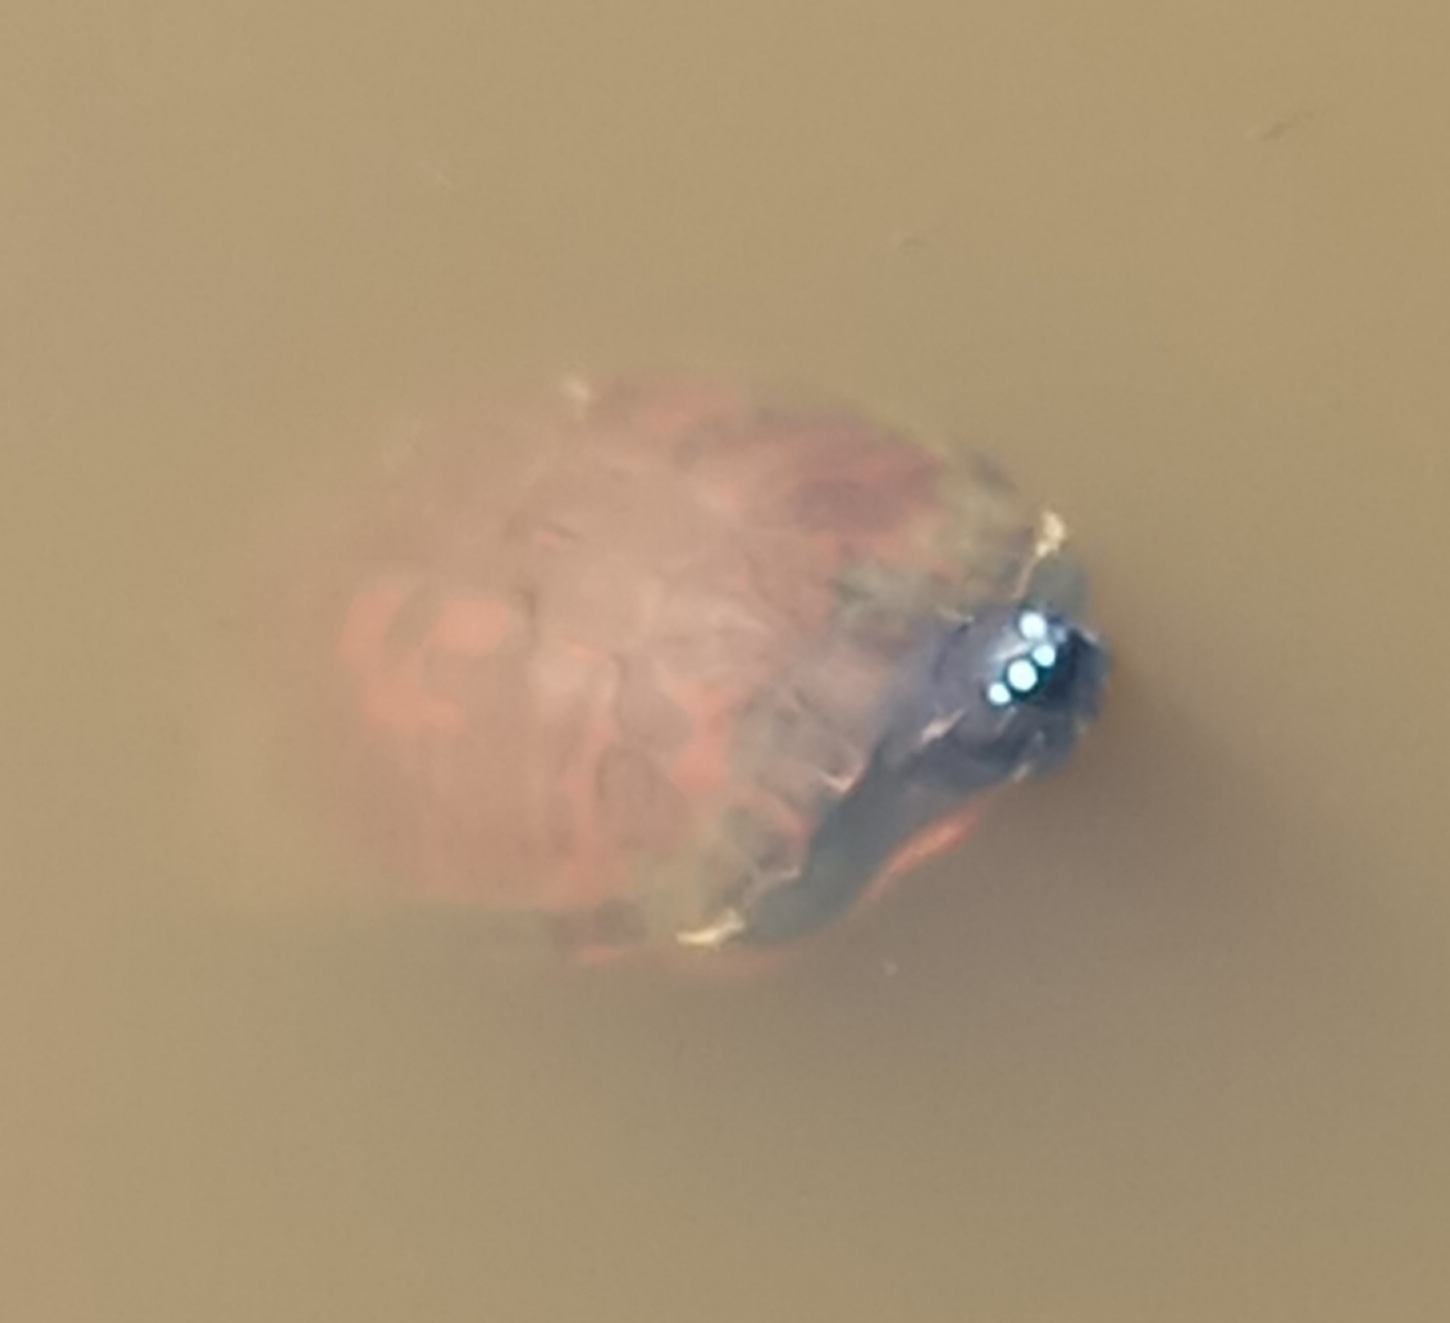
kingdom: Animalia
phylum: Chordata
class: Testudines
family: Emydidae
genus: Pseudemys
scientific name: Pseudemys rubriventris
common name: American red-bellied turtle
